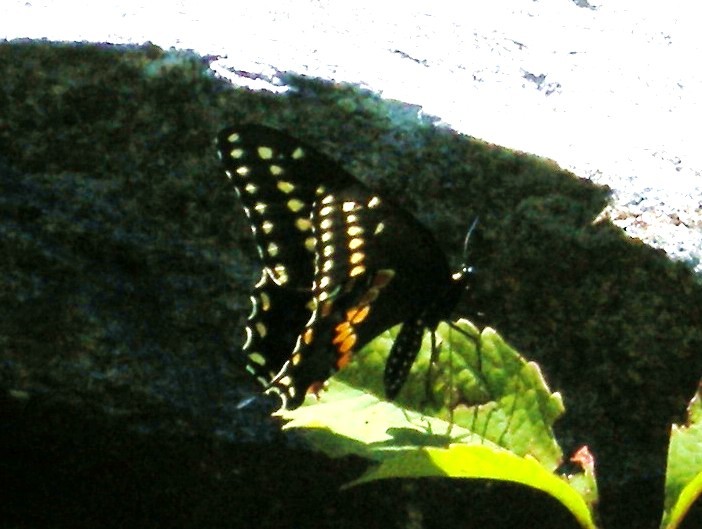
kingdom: Animalia
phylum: Arthropoda
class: Insecta
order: Lepidoptera
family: Papilionidae
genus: Papilio
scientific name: Papilio polyxenes
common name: Black swallowtail
